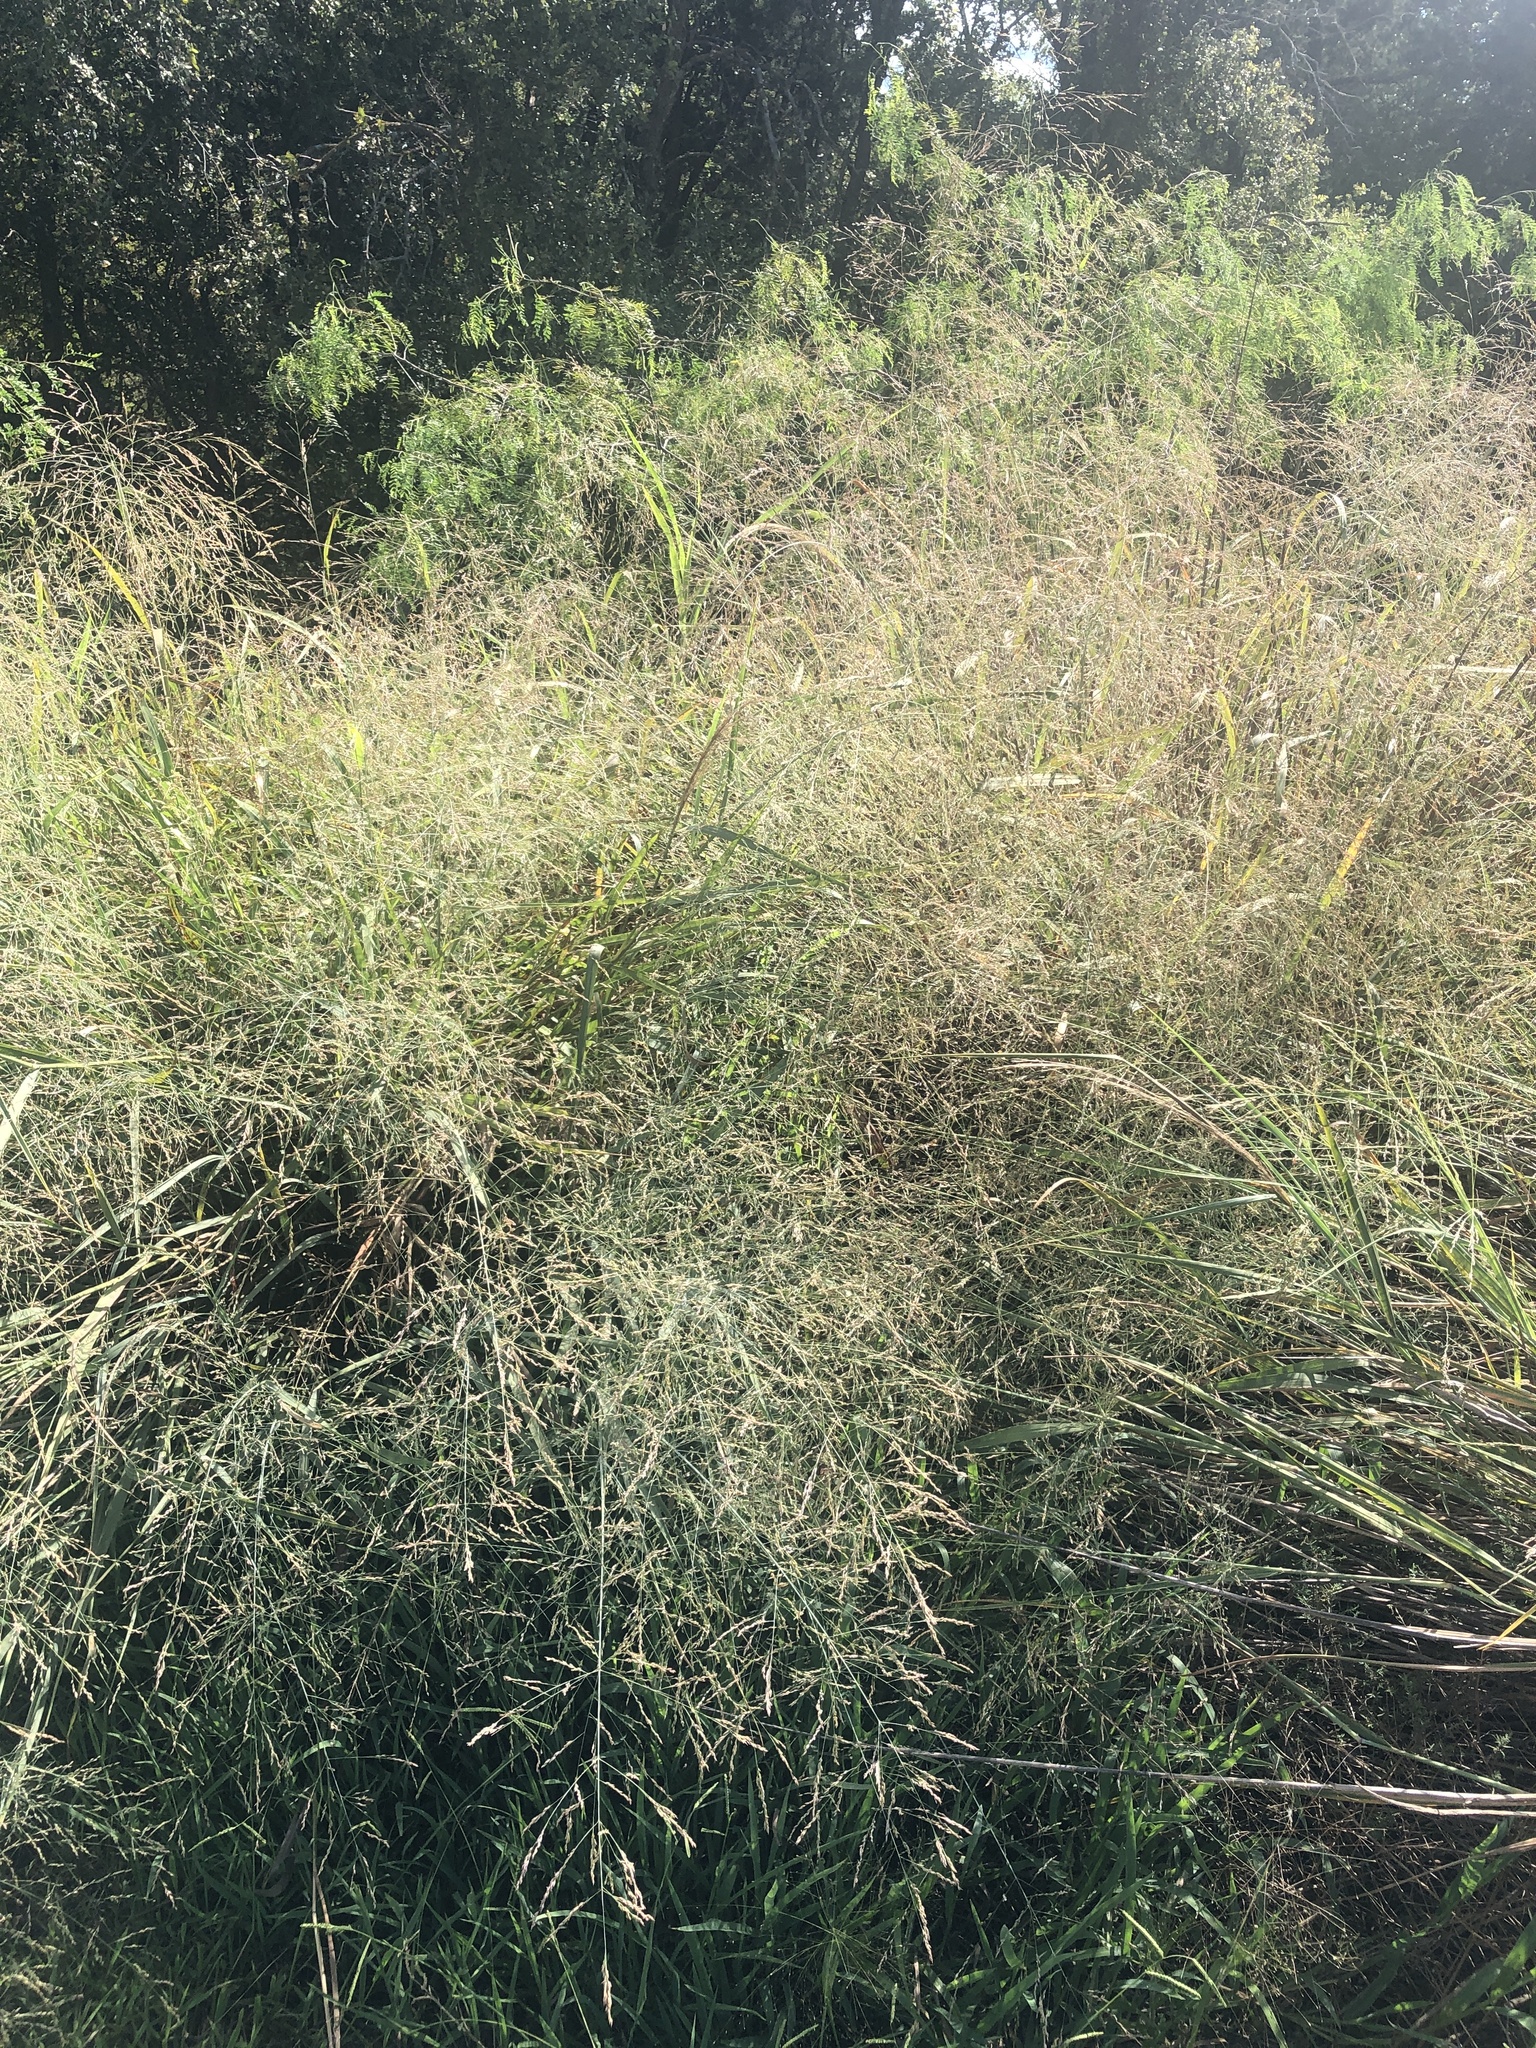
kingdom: Plantae
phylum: Tracheophyta
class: Liliopsida
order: Poales
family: Poaceae
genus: Panicum
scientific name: Panicum virgatum
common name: Switchgrass
